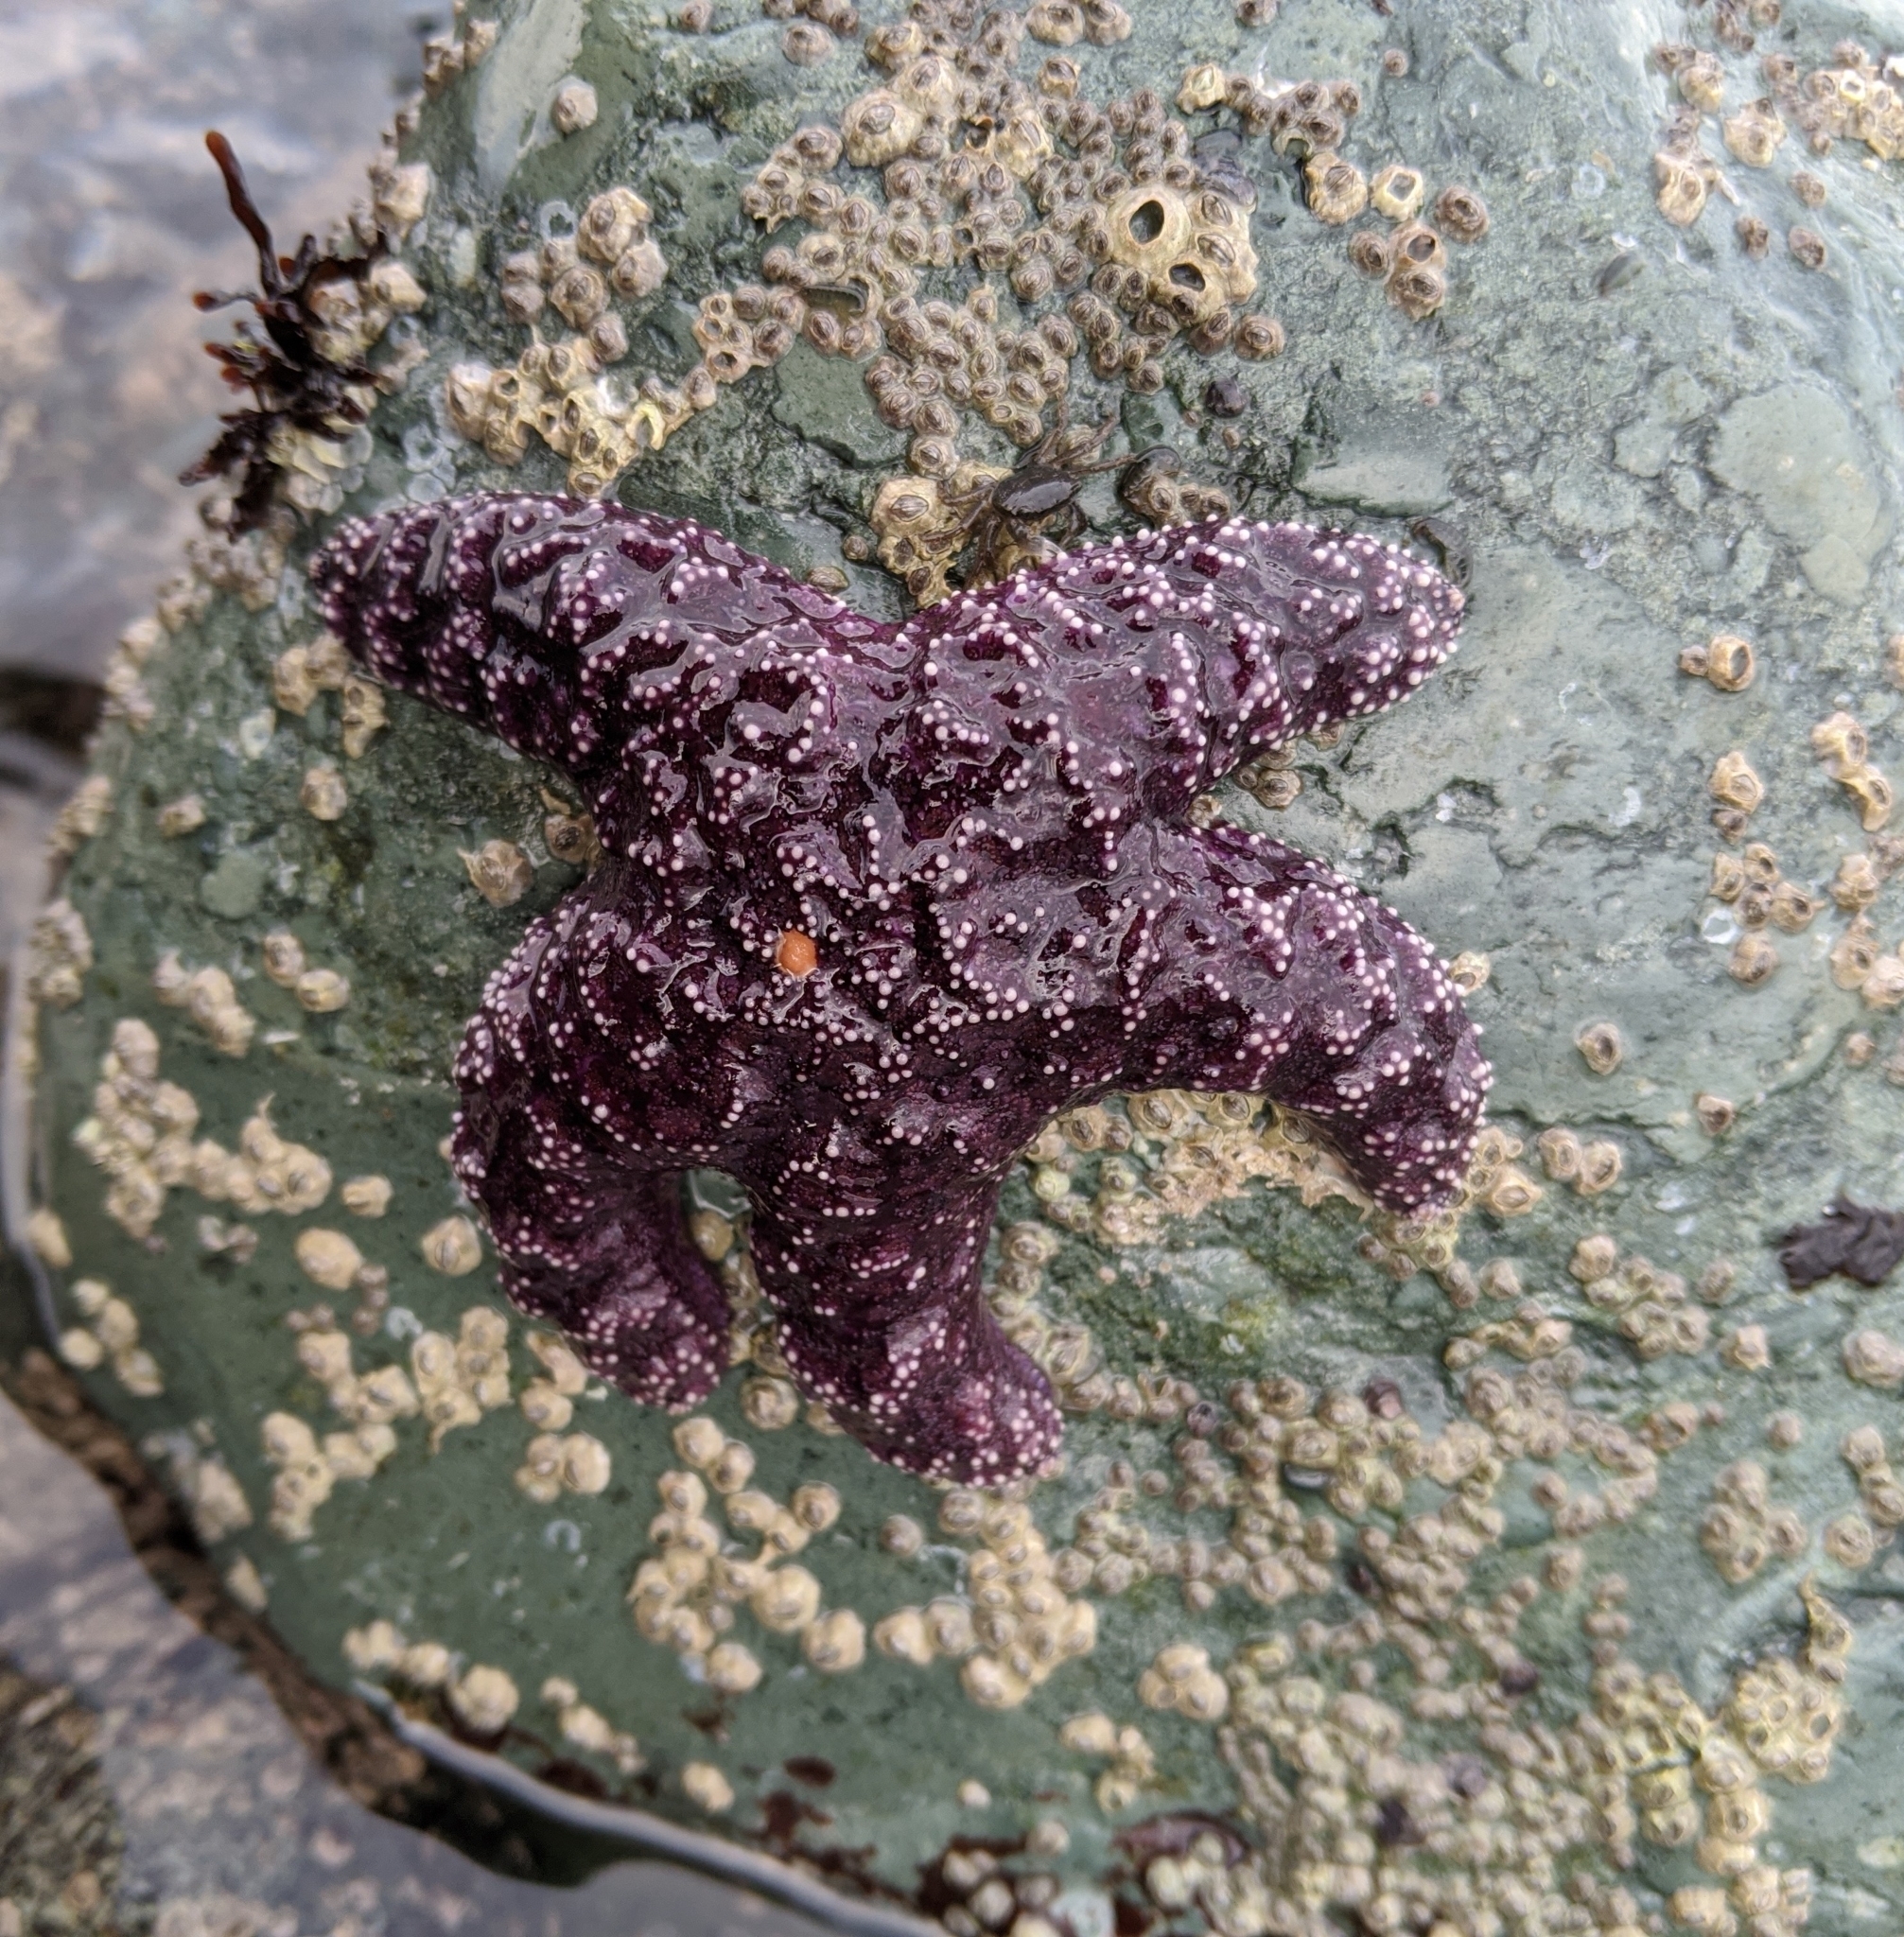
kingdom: Animalia
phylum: Echinodermata
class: Asteroidea
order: Forcipulatida
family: Asteriidae
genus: Pisaster
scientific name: Pisaster ochraceus
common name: Ochre stars
